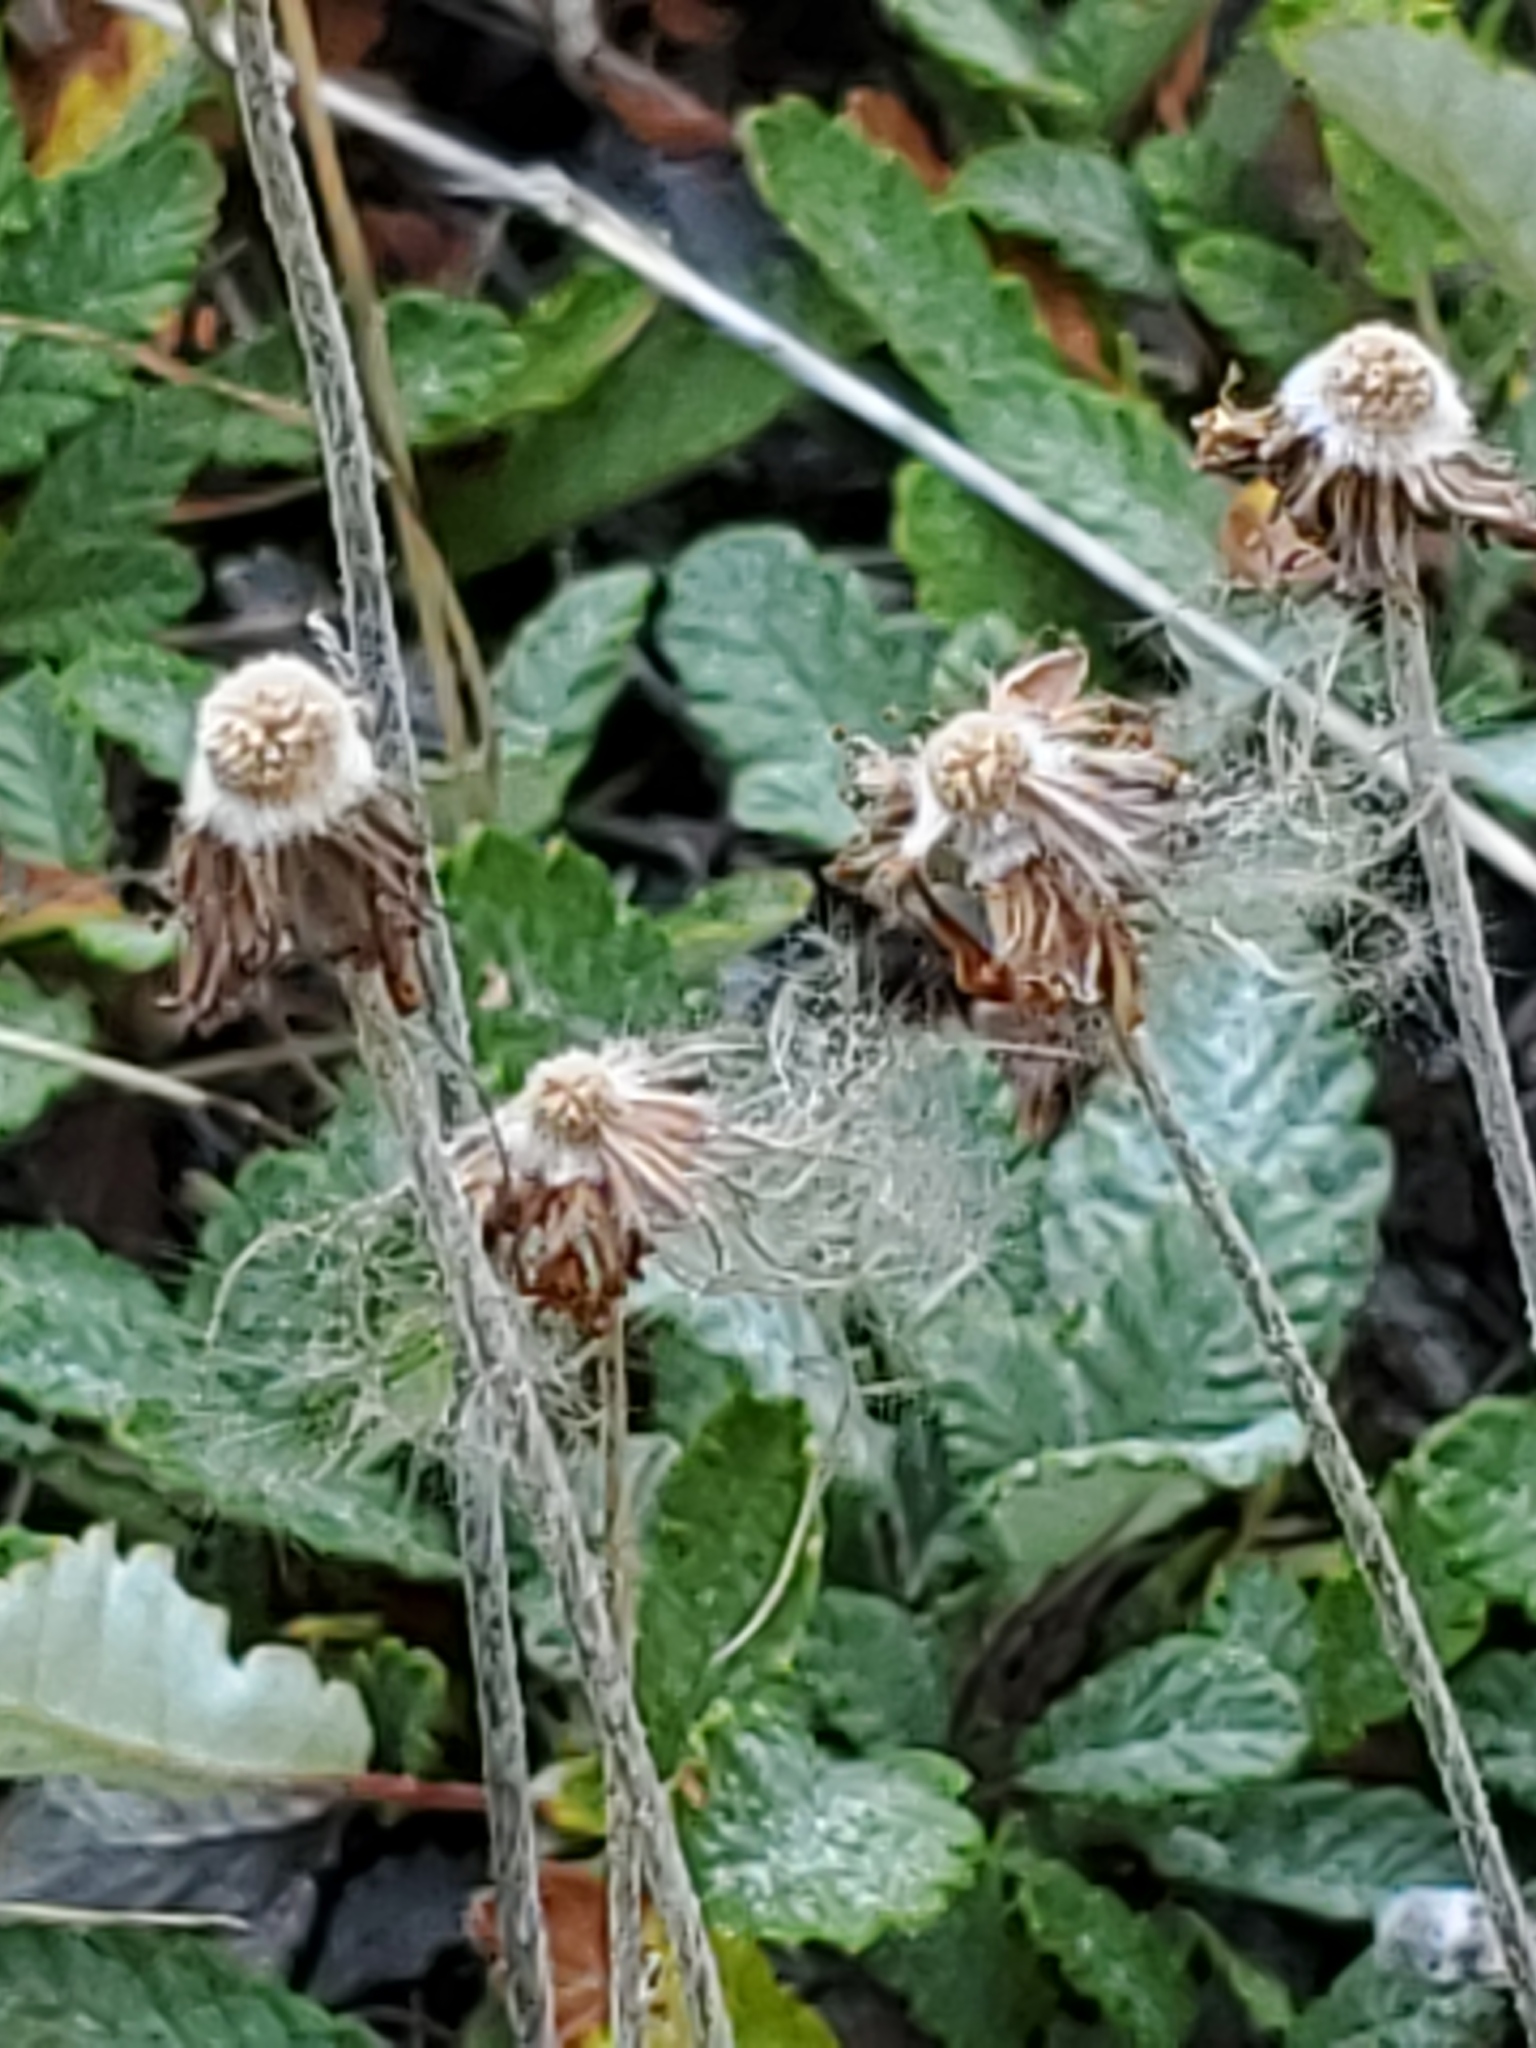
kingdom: Plantae
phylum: Tracheophyta
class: Magnoliopsida
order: Rosales
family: Rosaceae
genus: Dryas
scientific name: Dryas drummondii
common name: Drummond's dryad
